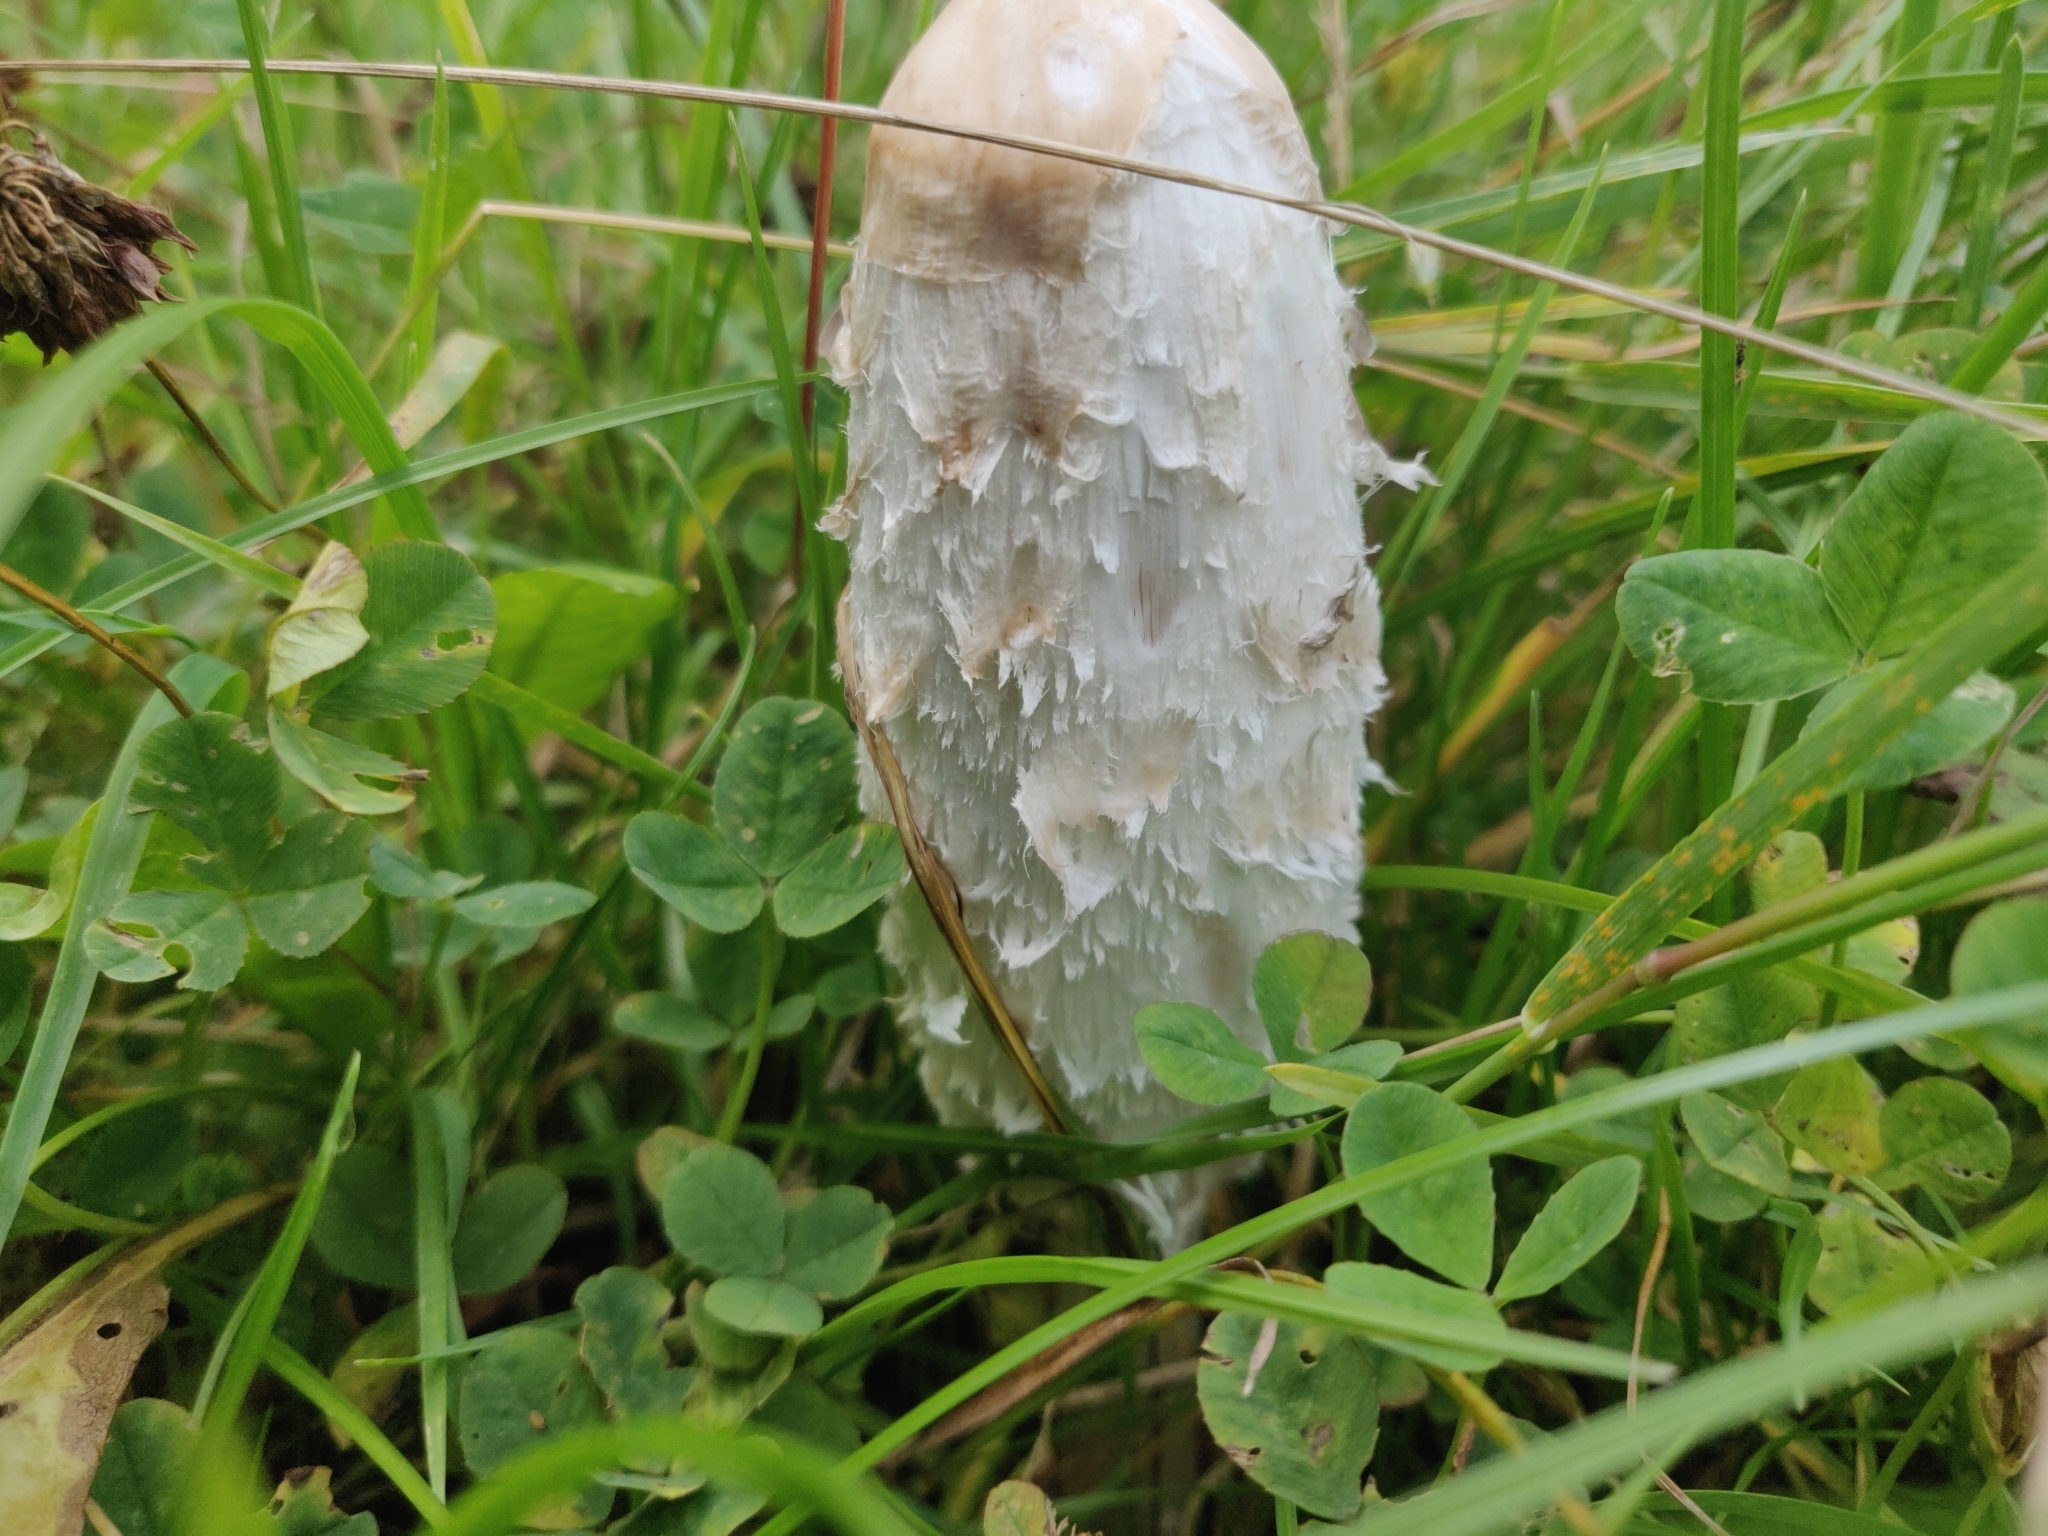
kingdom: Fungi
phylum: Basidiomycota
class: Agaricomycetes
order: Agaricales
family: Agaricaceae
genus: Coprinus
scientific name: Coprinus comatus
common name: Lawyer's wig
